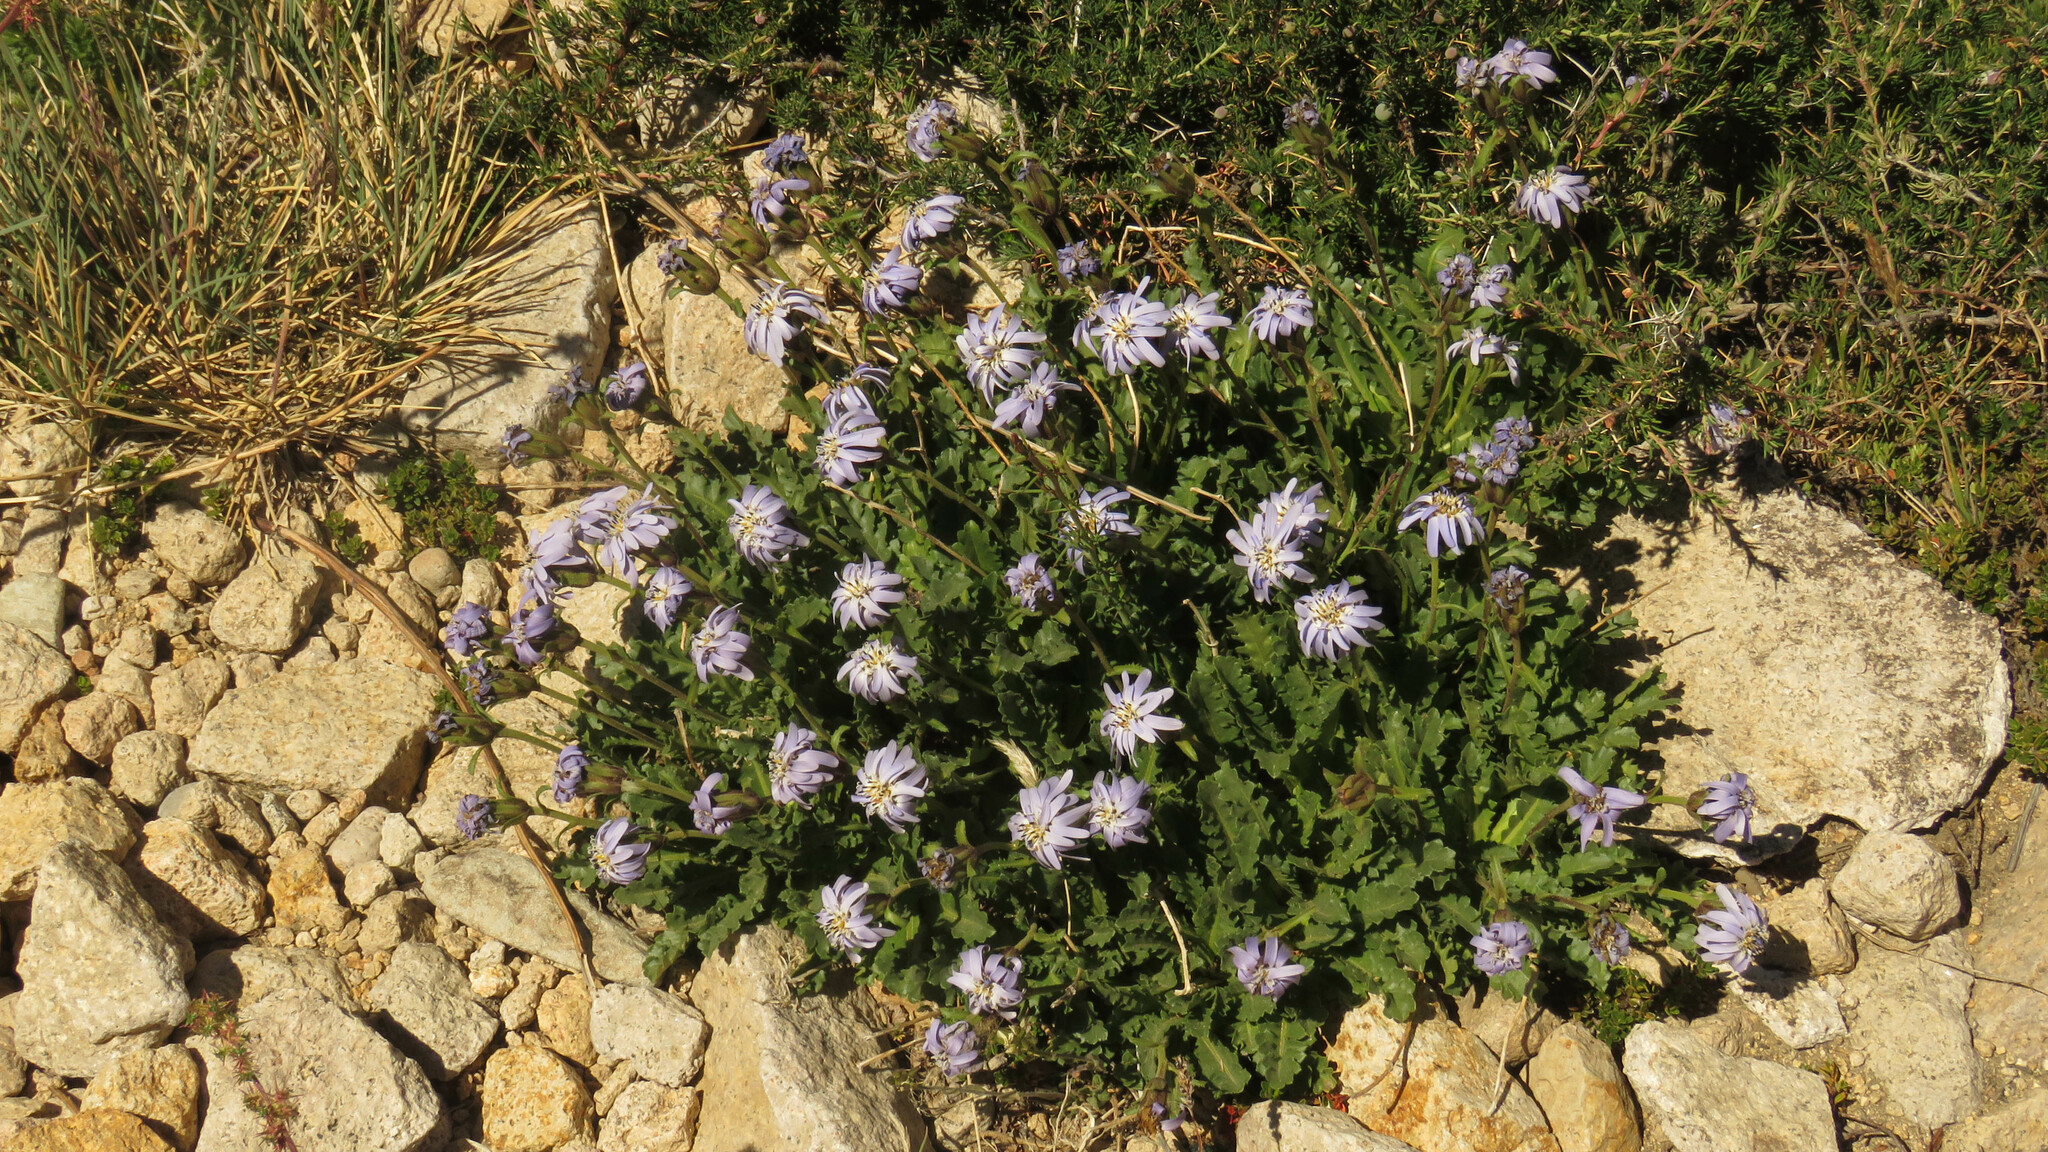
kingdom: Plantae
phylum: Tracheophyta
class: Magnoliopsida
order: Asterales
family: Asteraceae
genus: Perezia
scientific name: Perezia fonckii
